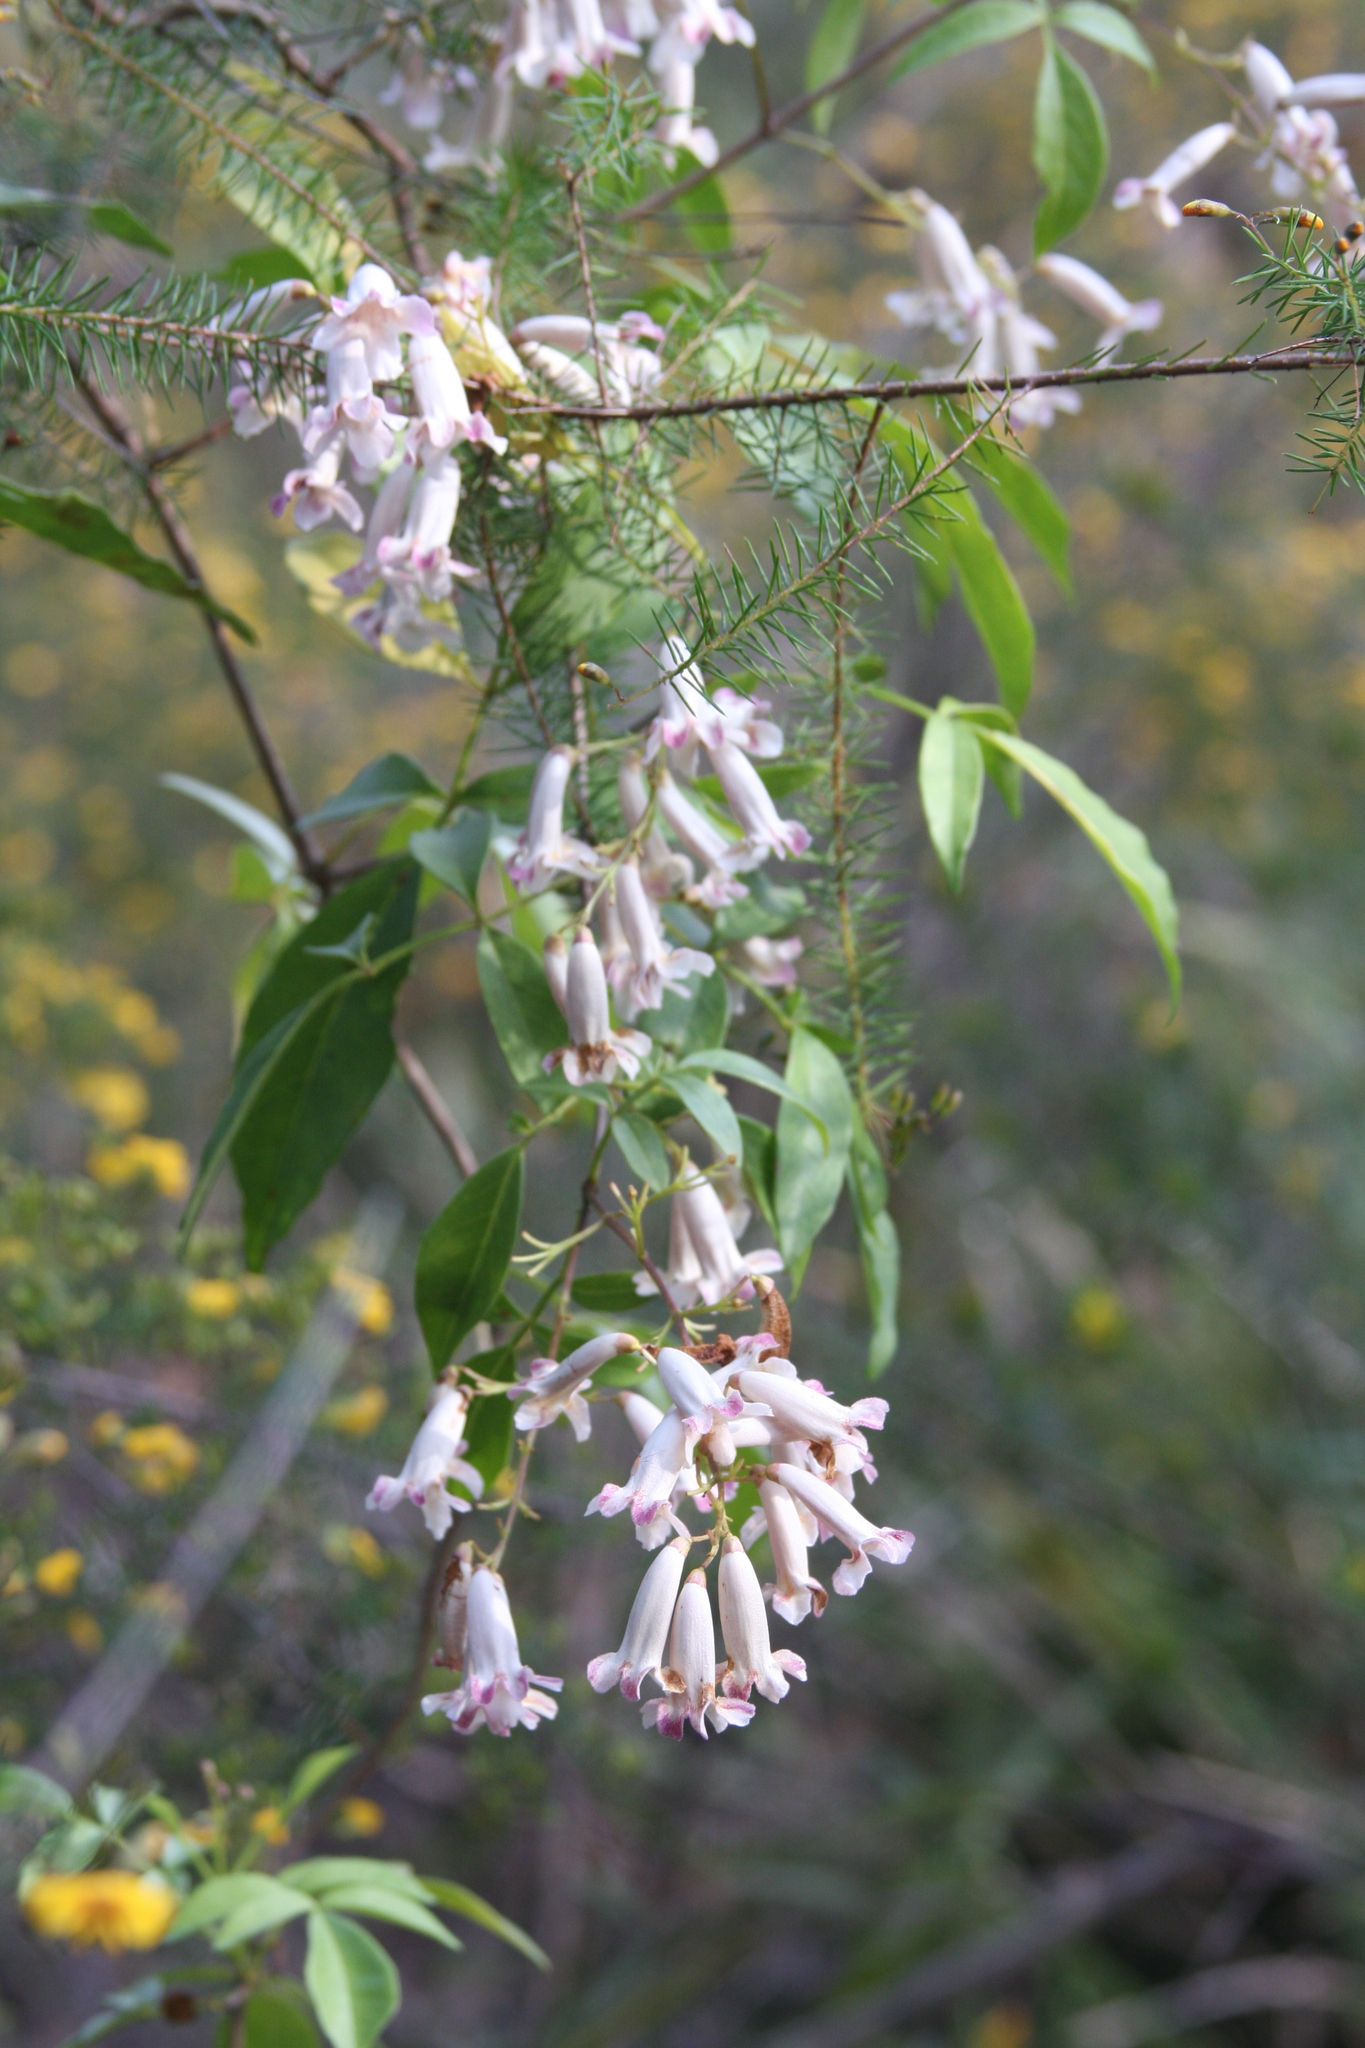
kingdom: Plantae
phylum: Tracheophyta
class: Magnoliopsida
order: Lamiales
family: Bignoniaceae
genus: Pandorea
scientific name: Pandorea pandorana
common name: Wonga-wonga-vine
